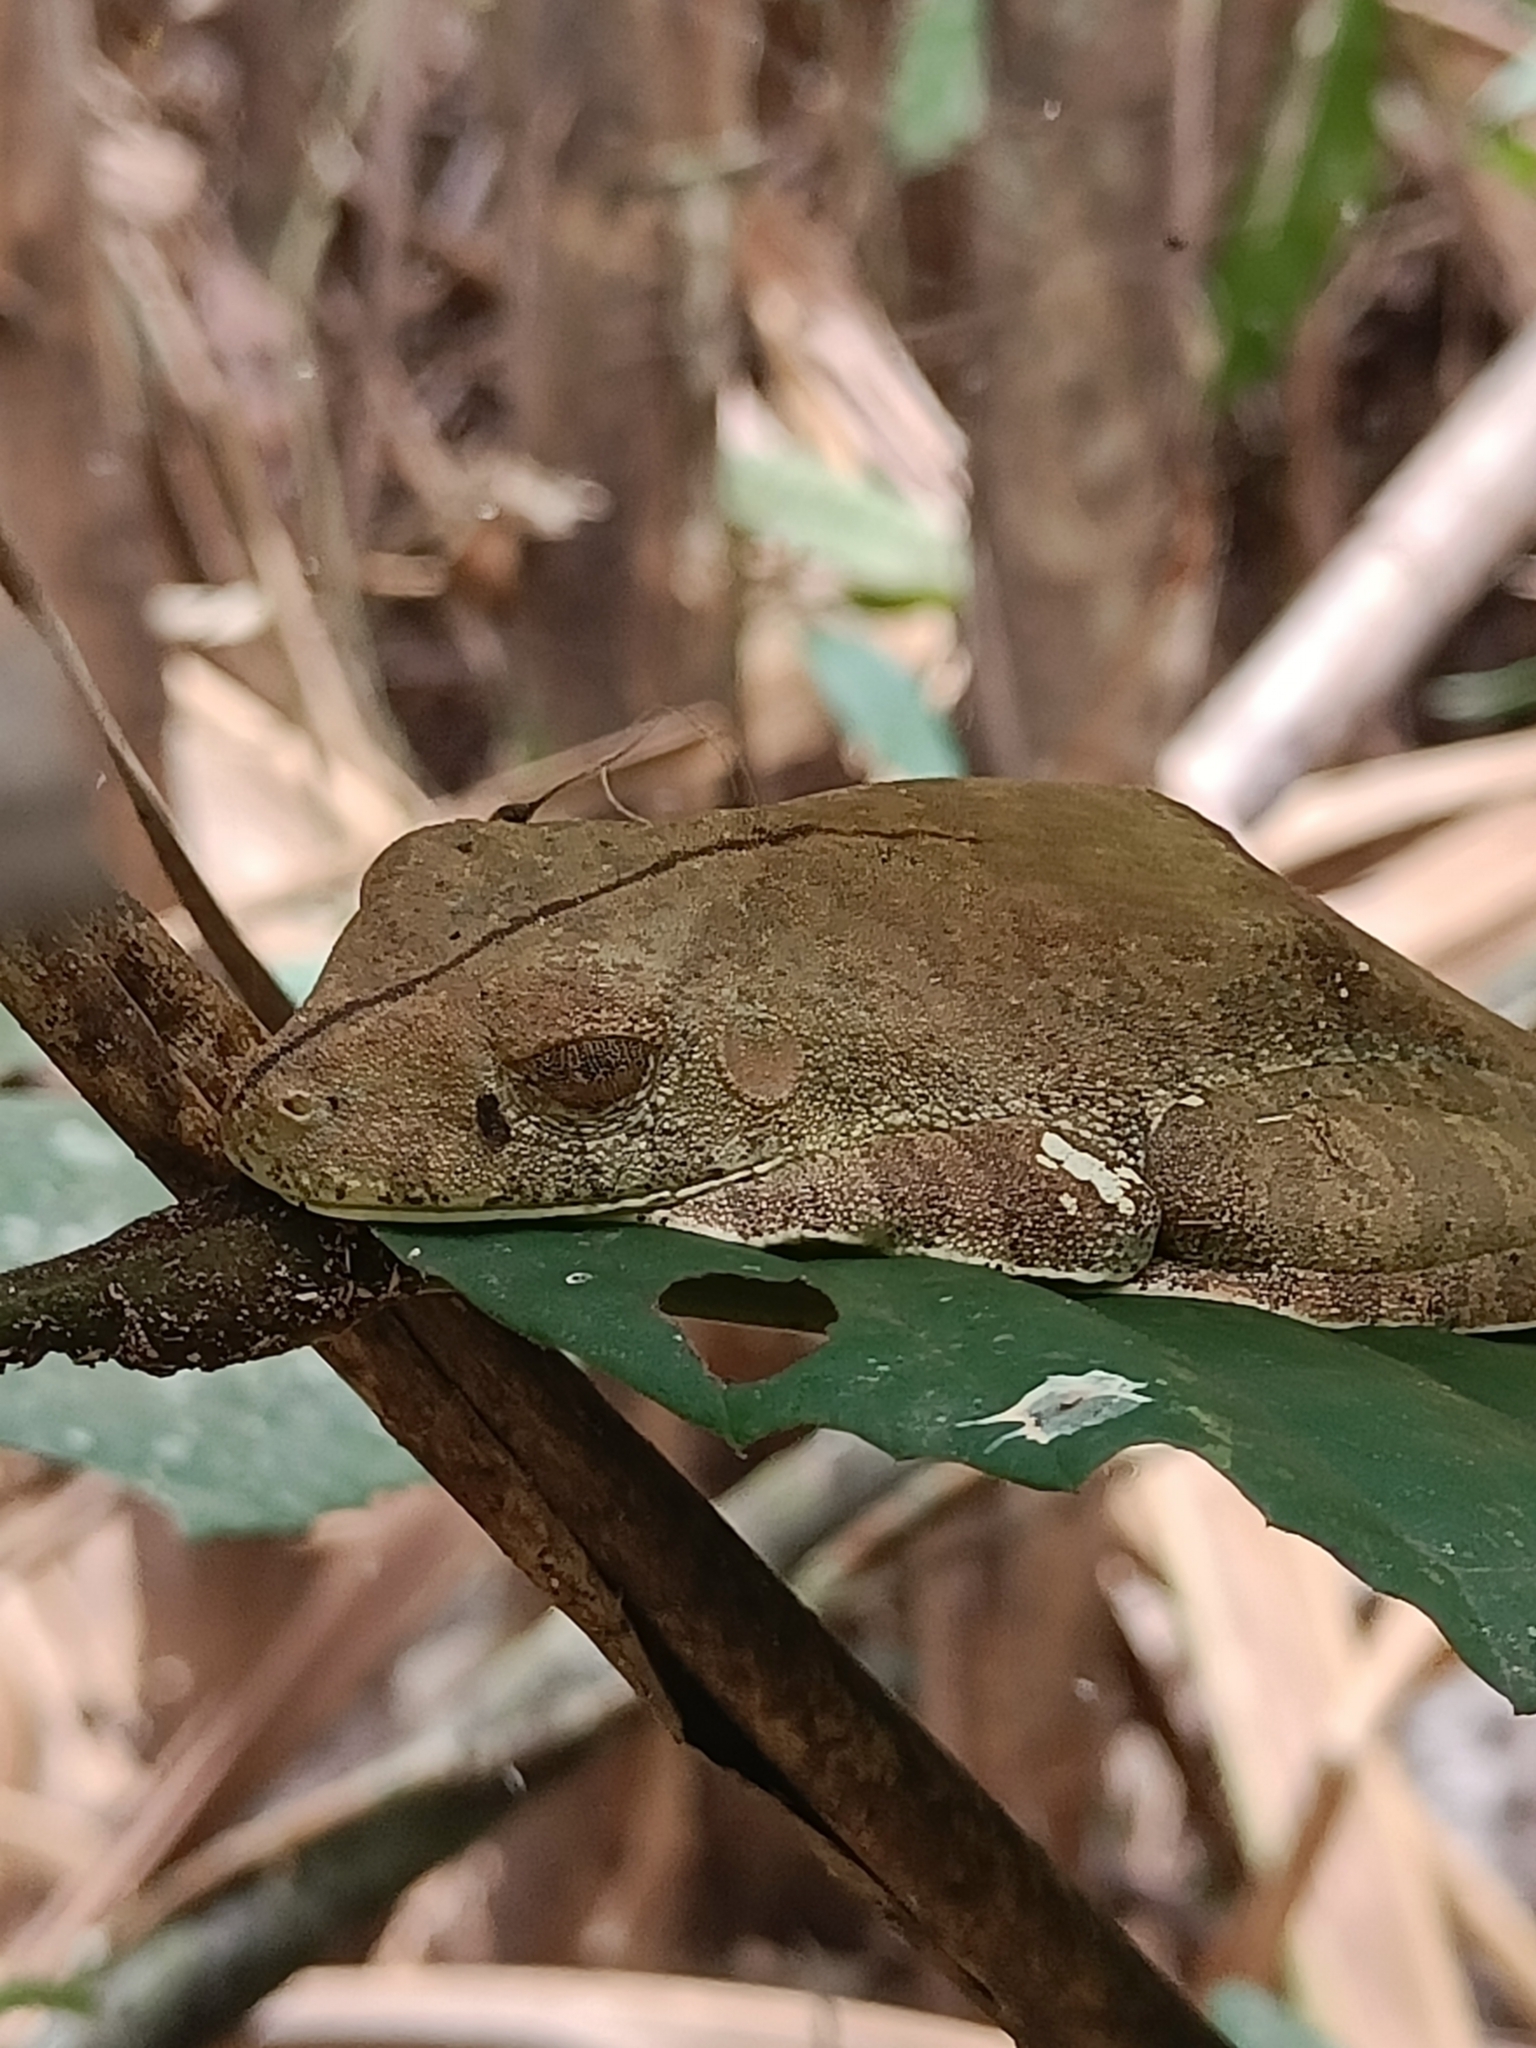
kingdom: Animalia
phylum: Chordata
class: Amphibia
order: Anura
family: Hylidae
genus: Boana
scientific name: Boana boans
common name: Giant gladiator treefrog
